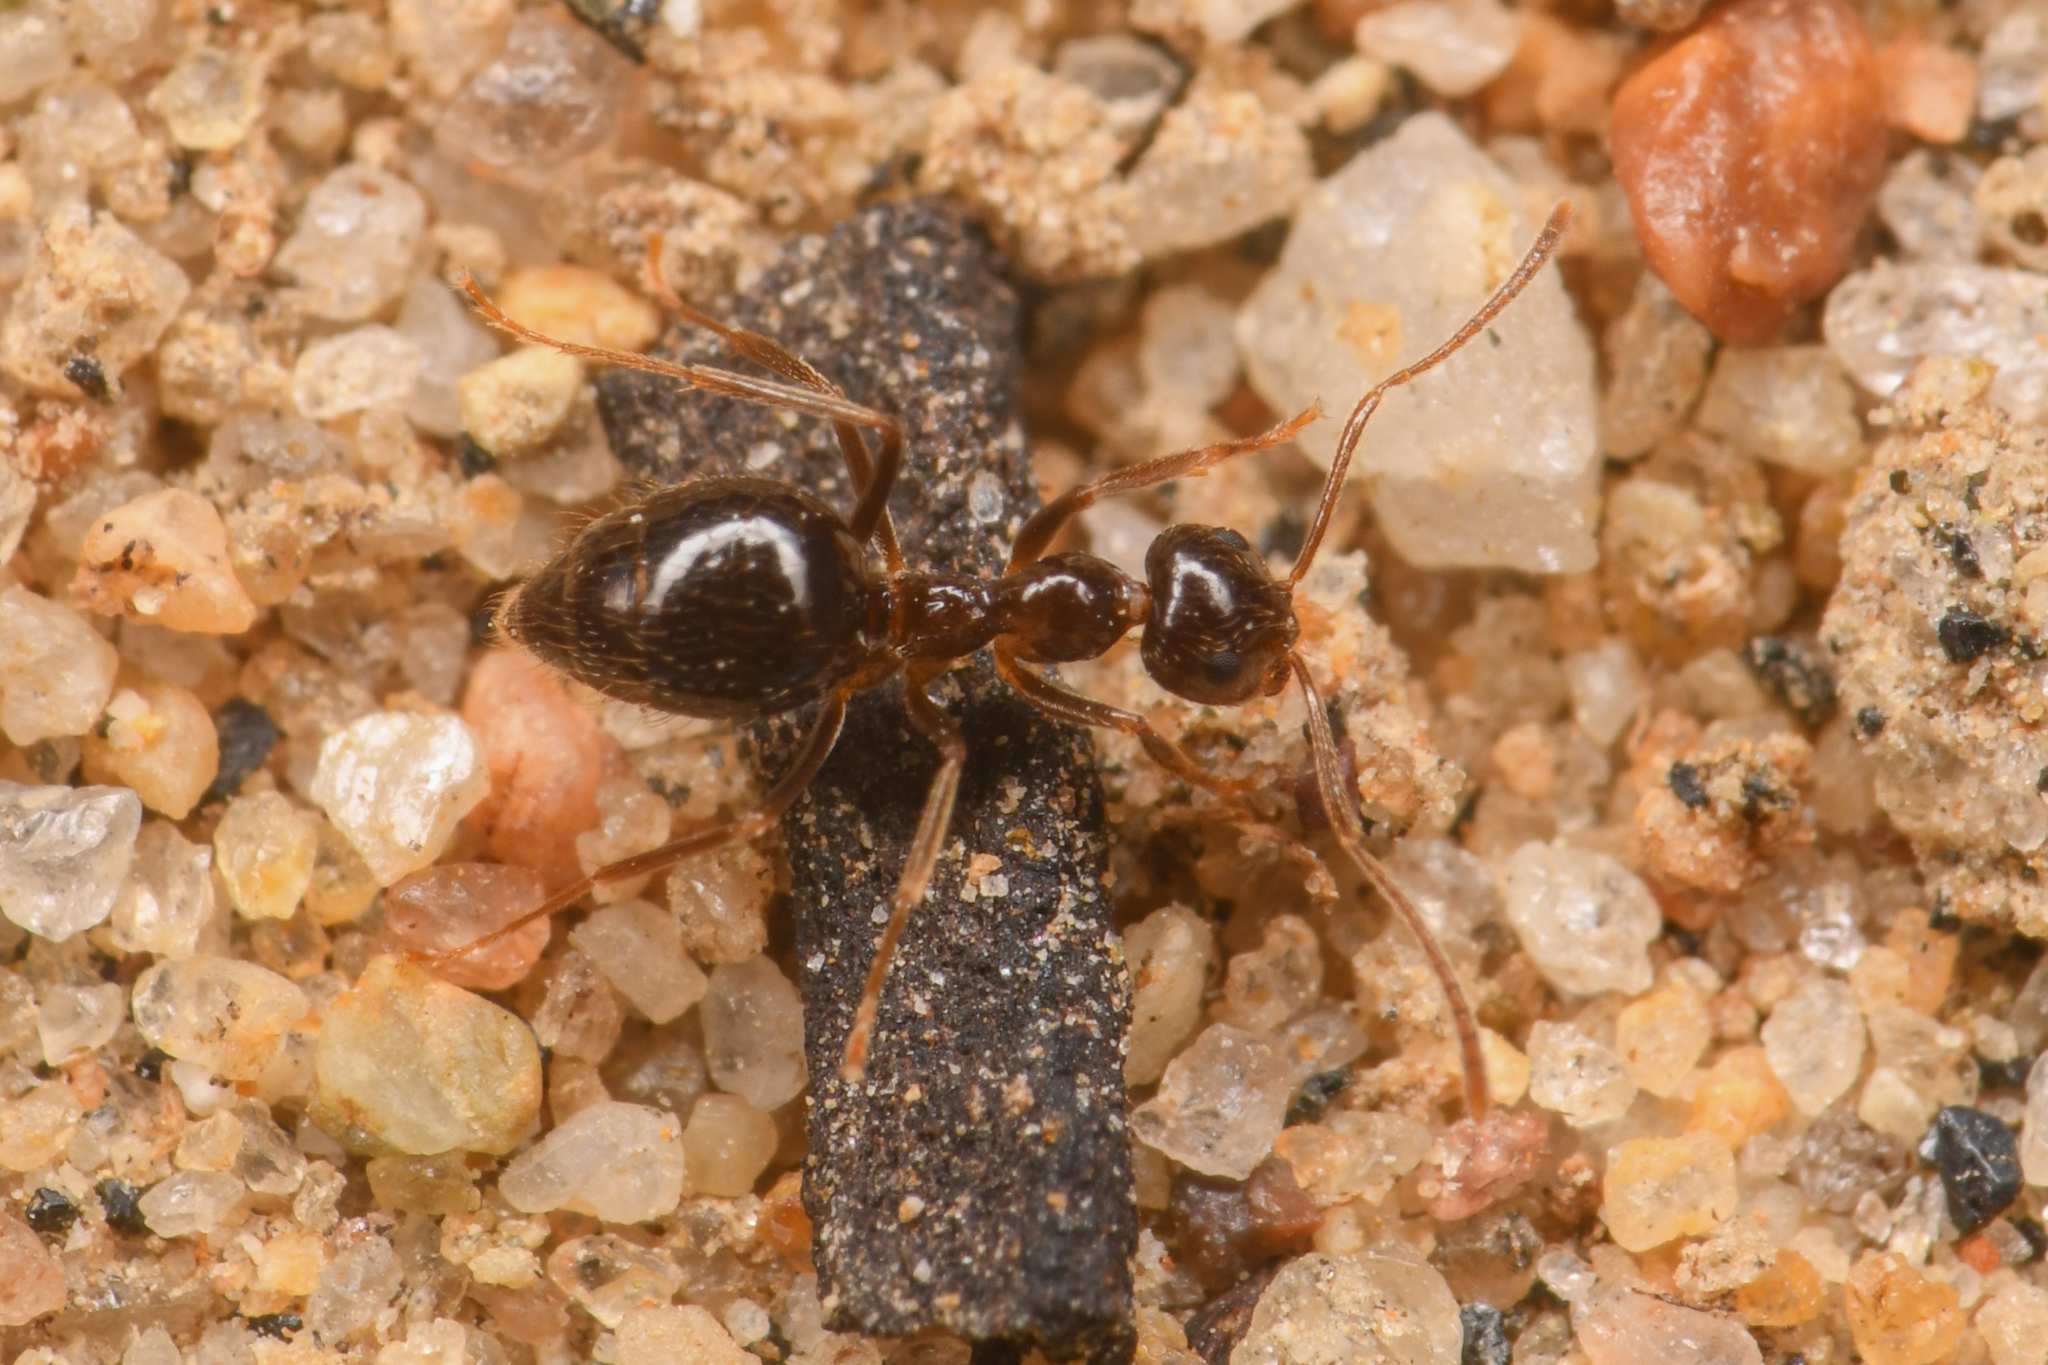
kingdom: Animalia
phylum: Arthropoda
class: Insecta
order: Hymenoptera
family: Formicidae
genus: Prenolepis
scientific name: Prenolepis imparis
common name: Small honey ant
